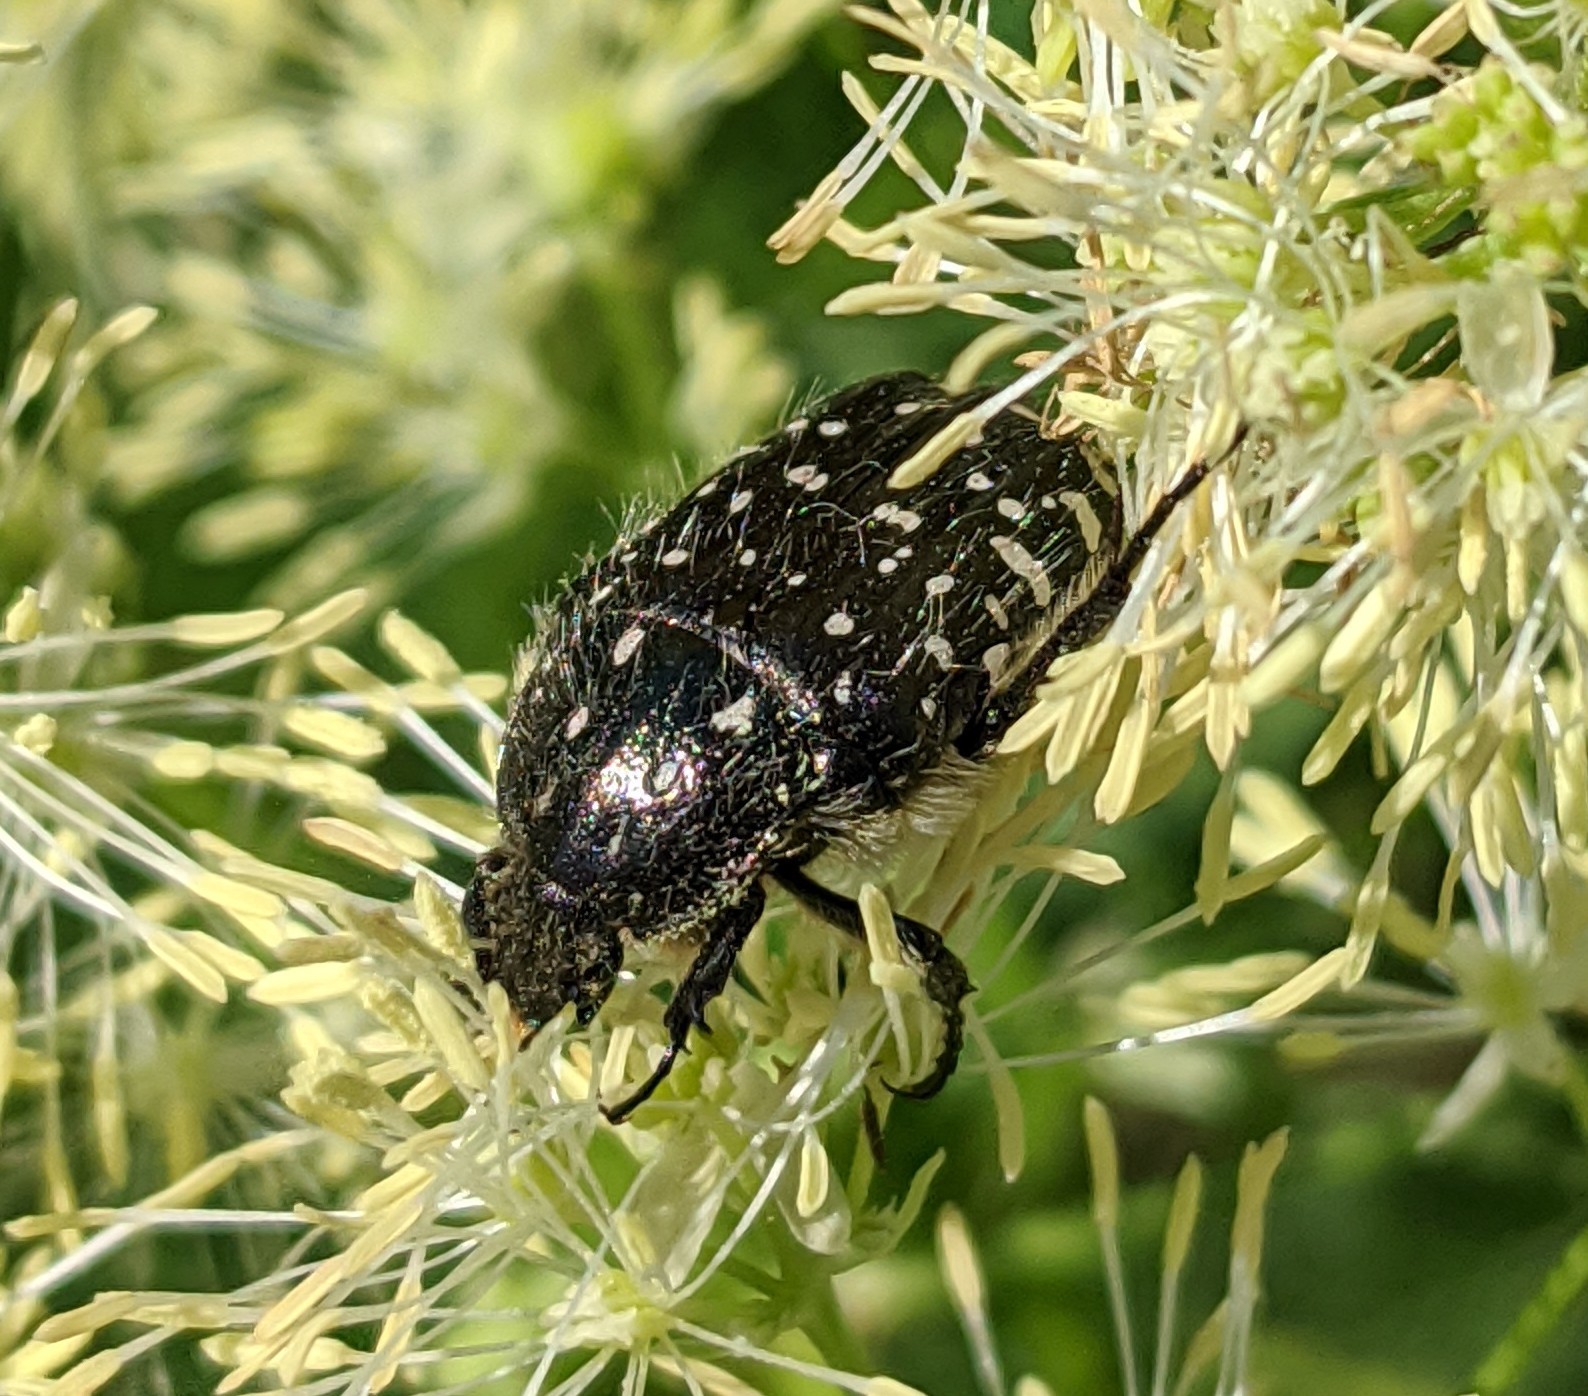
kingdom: Animalia
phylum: Arthropoda
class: Insecta
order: Coleoptera
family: Scarabaeidae
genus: Oxythyrea
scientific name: Oxythyrea funesta
